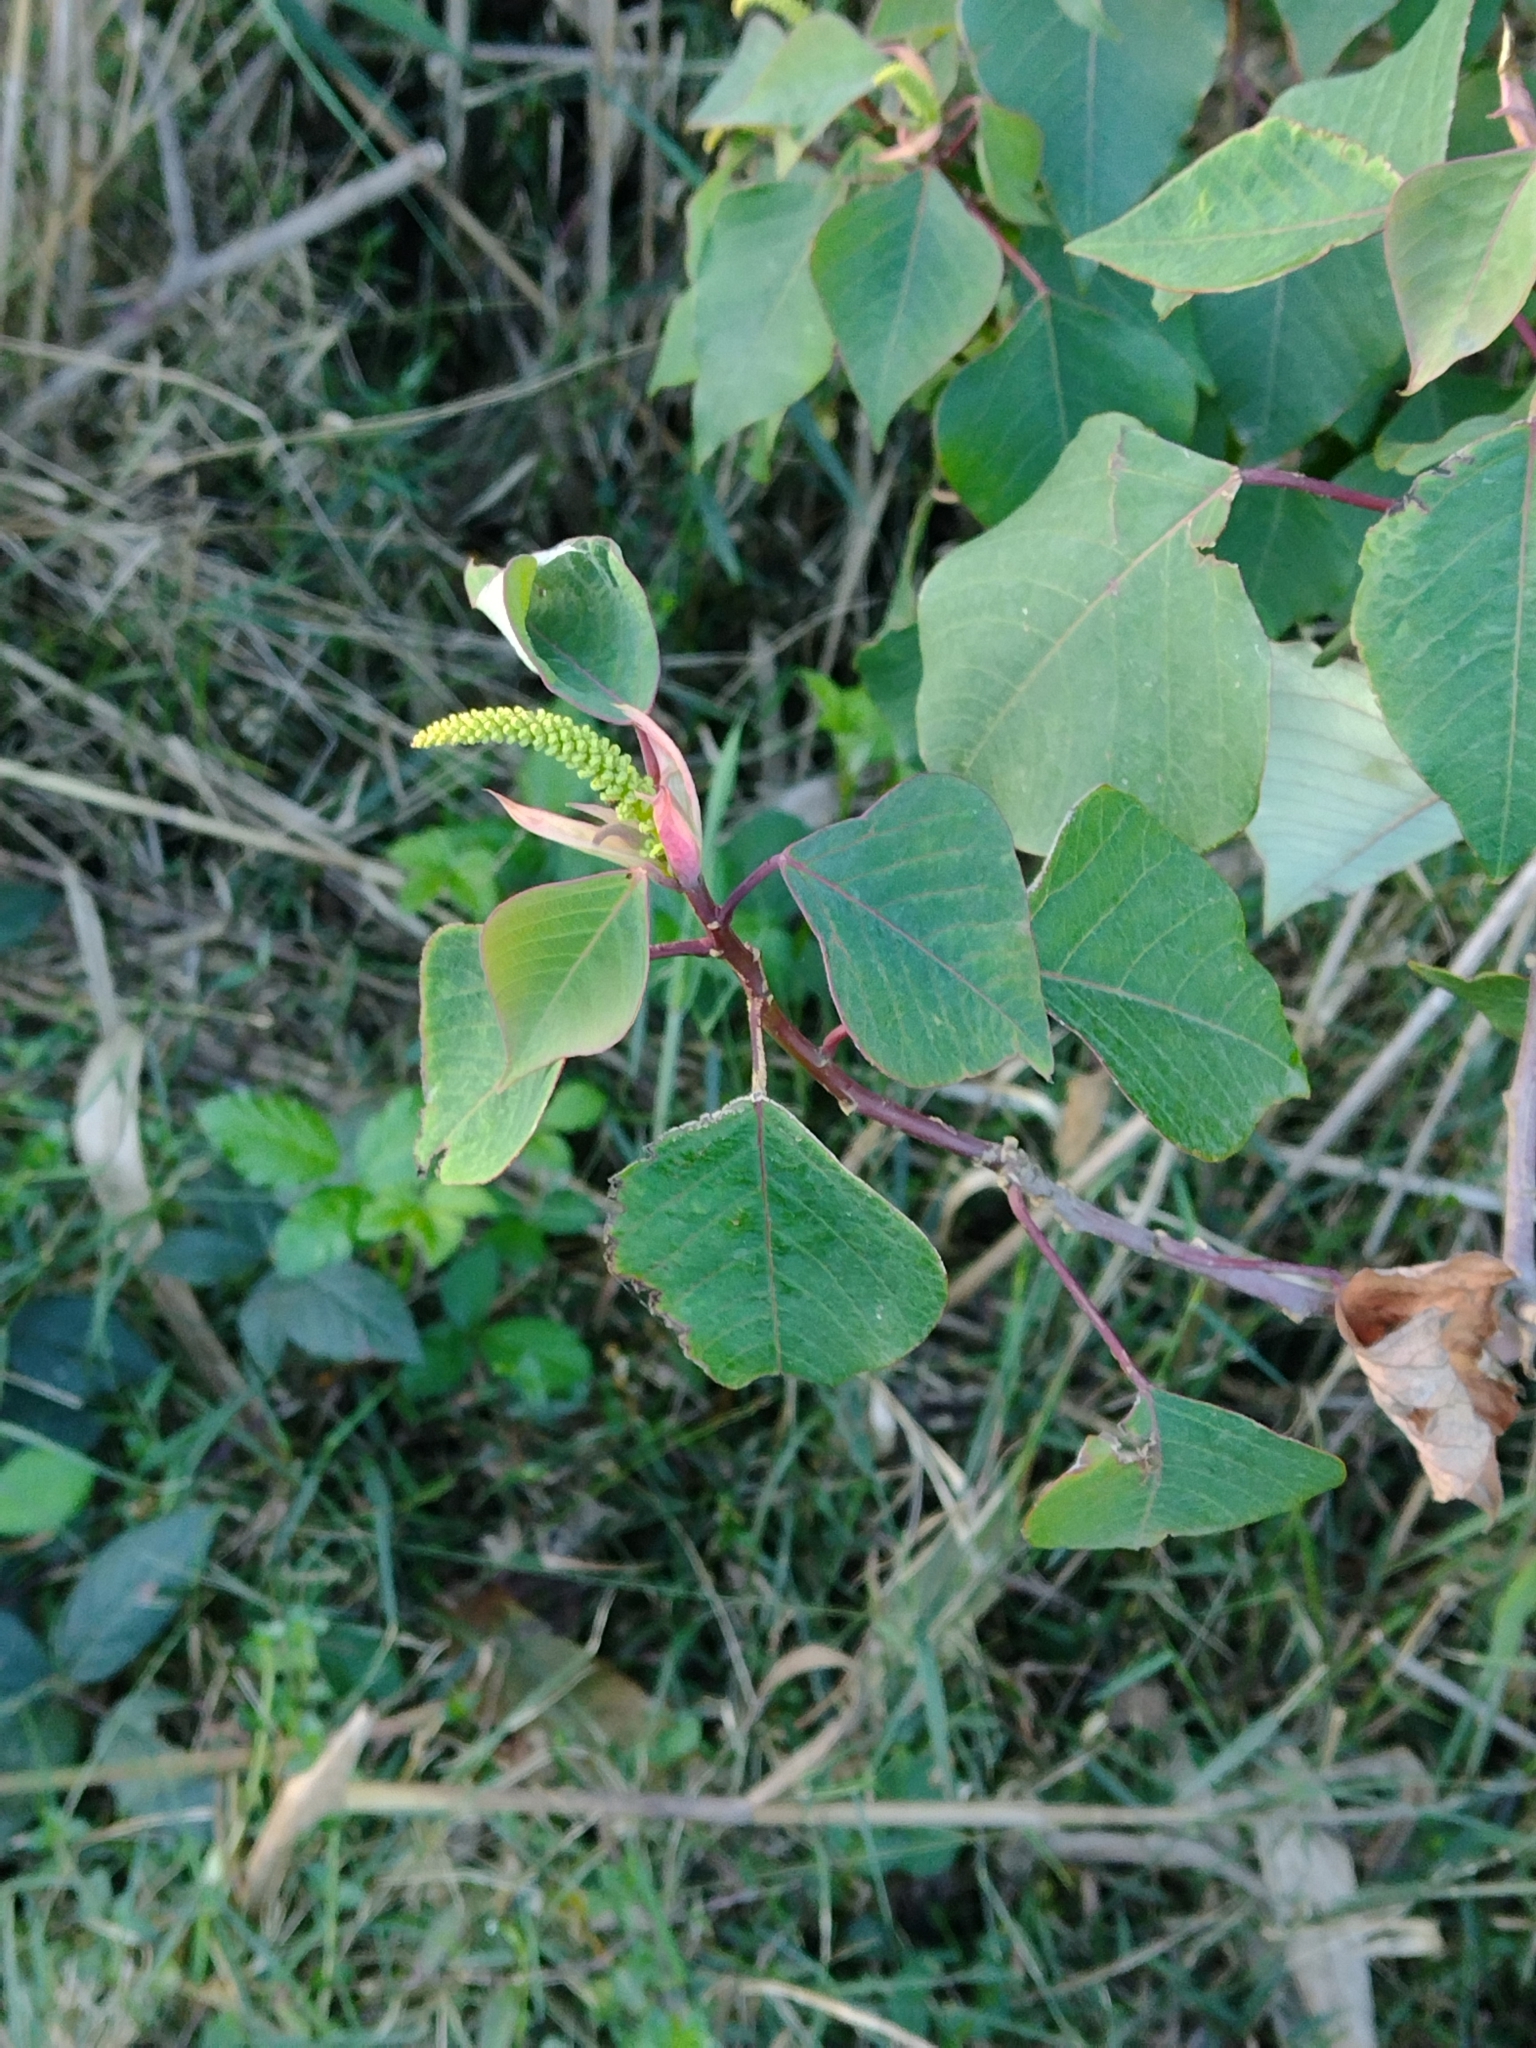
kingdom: Plantae
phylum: Tracheophyta
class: Magnoliopsida
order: Malpighiales
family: Euphorbiaceae
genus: Homalanthus
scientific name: Homalanthus populifolius
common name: Queensland poplar
